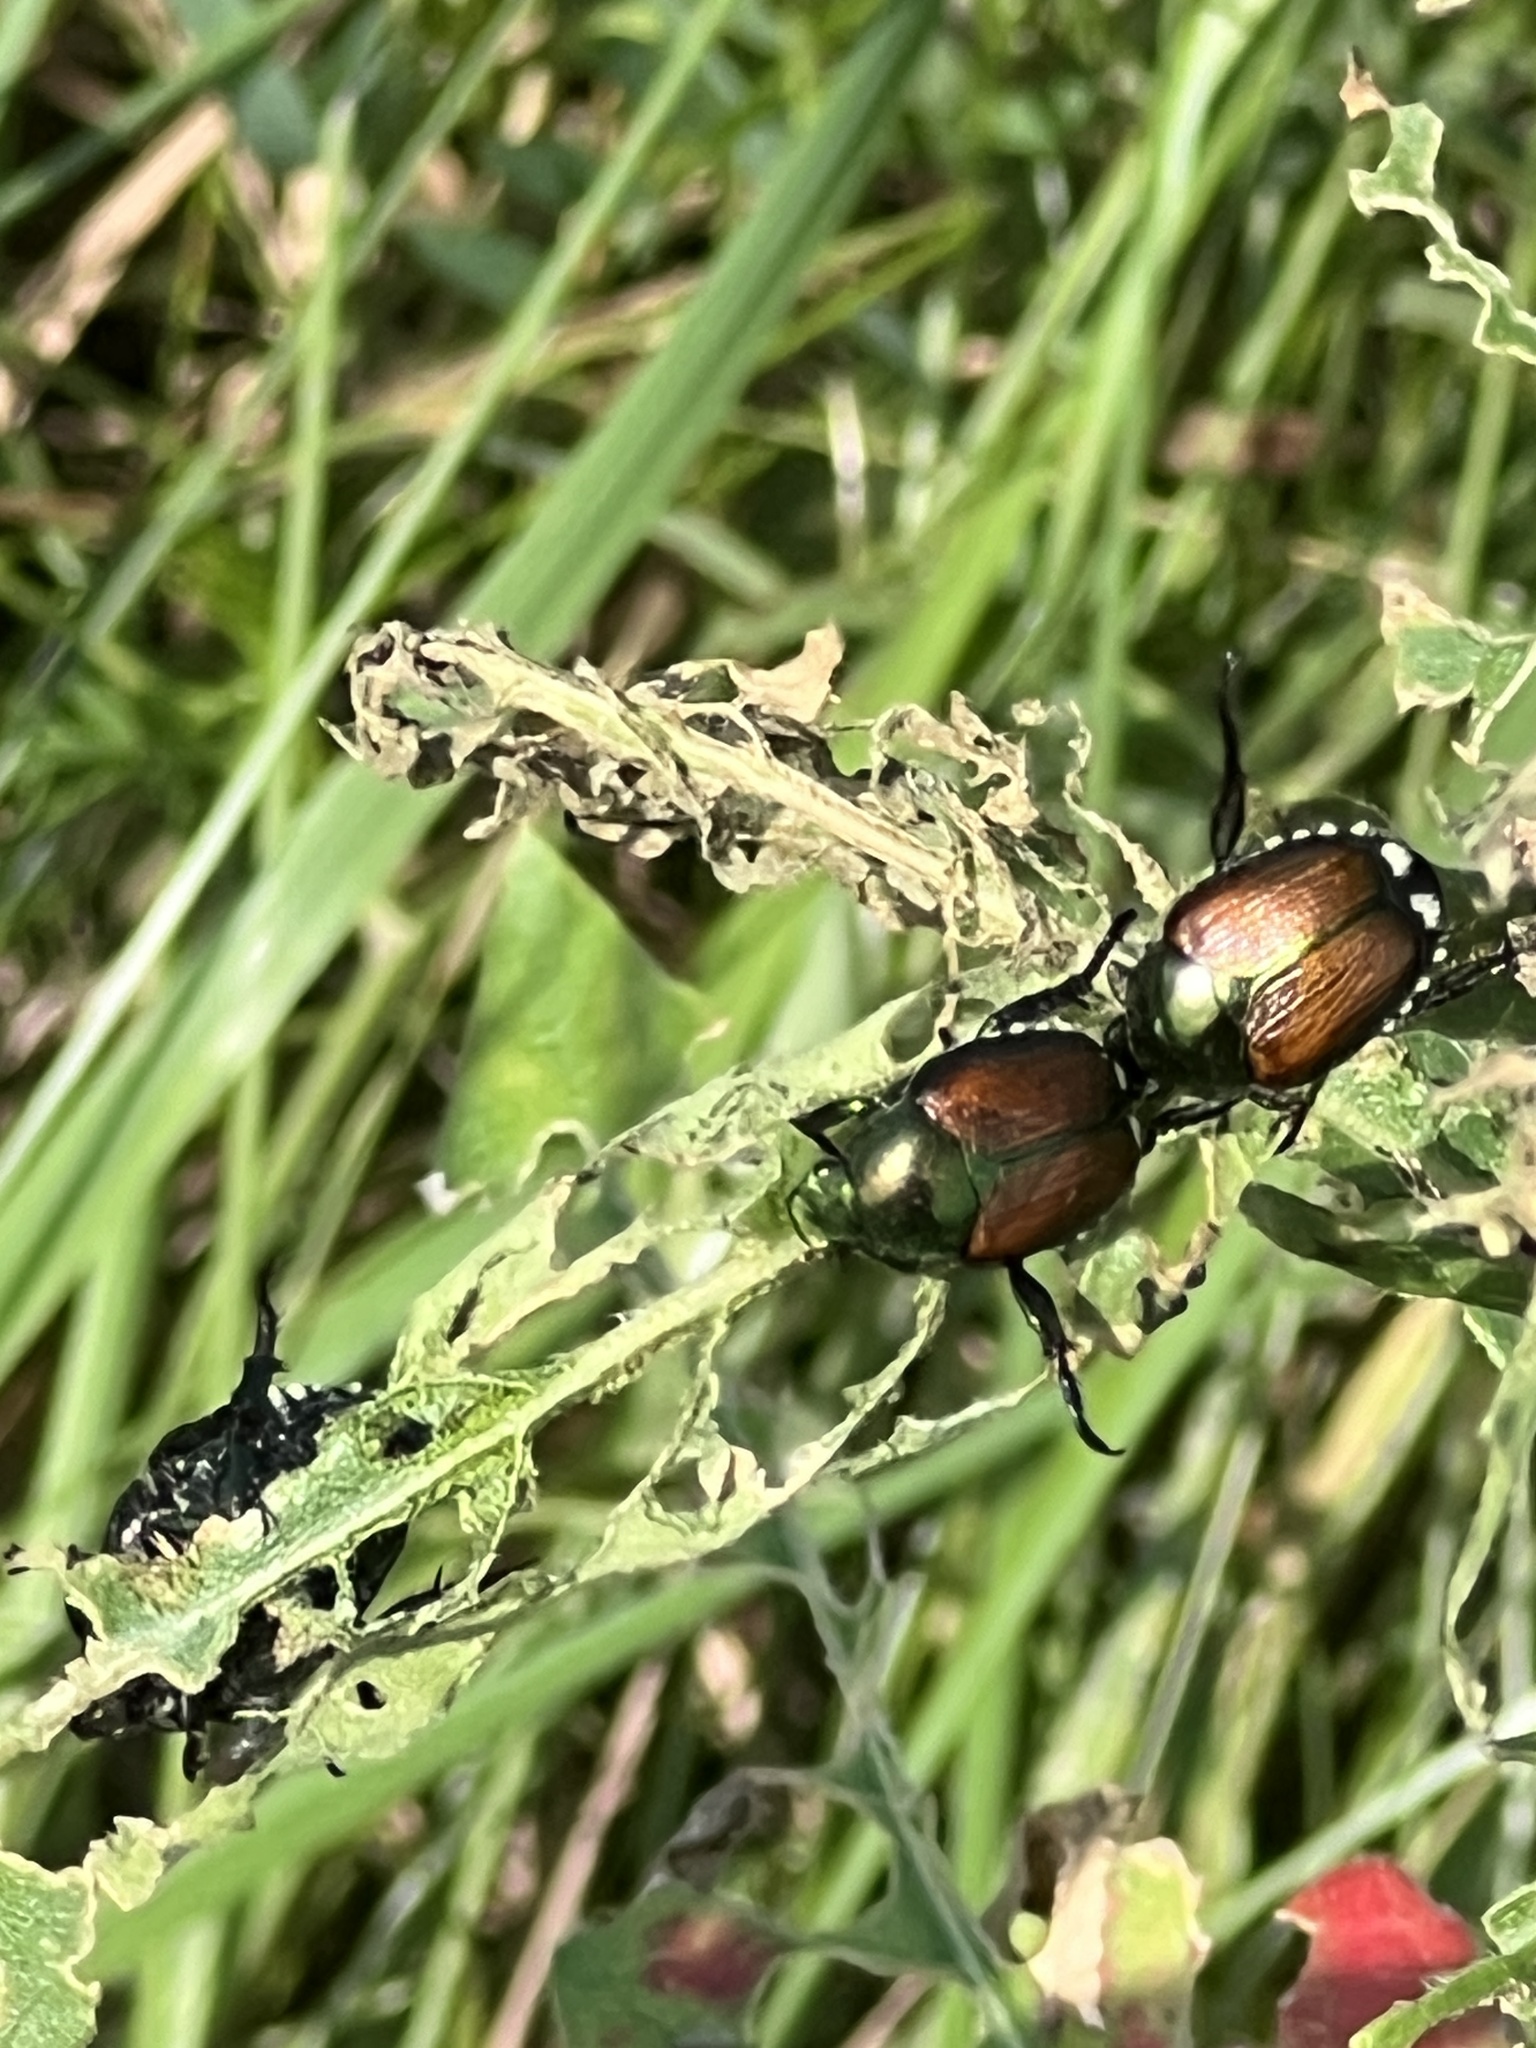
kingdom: Animalia
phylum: Arthropoda
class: Insecta
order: Coleoptera
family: Scarabaeidae
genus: Popillia
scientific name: Popillia japonica
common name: Japanese beetle
